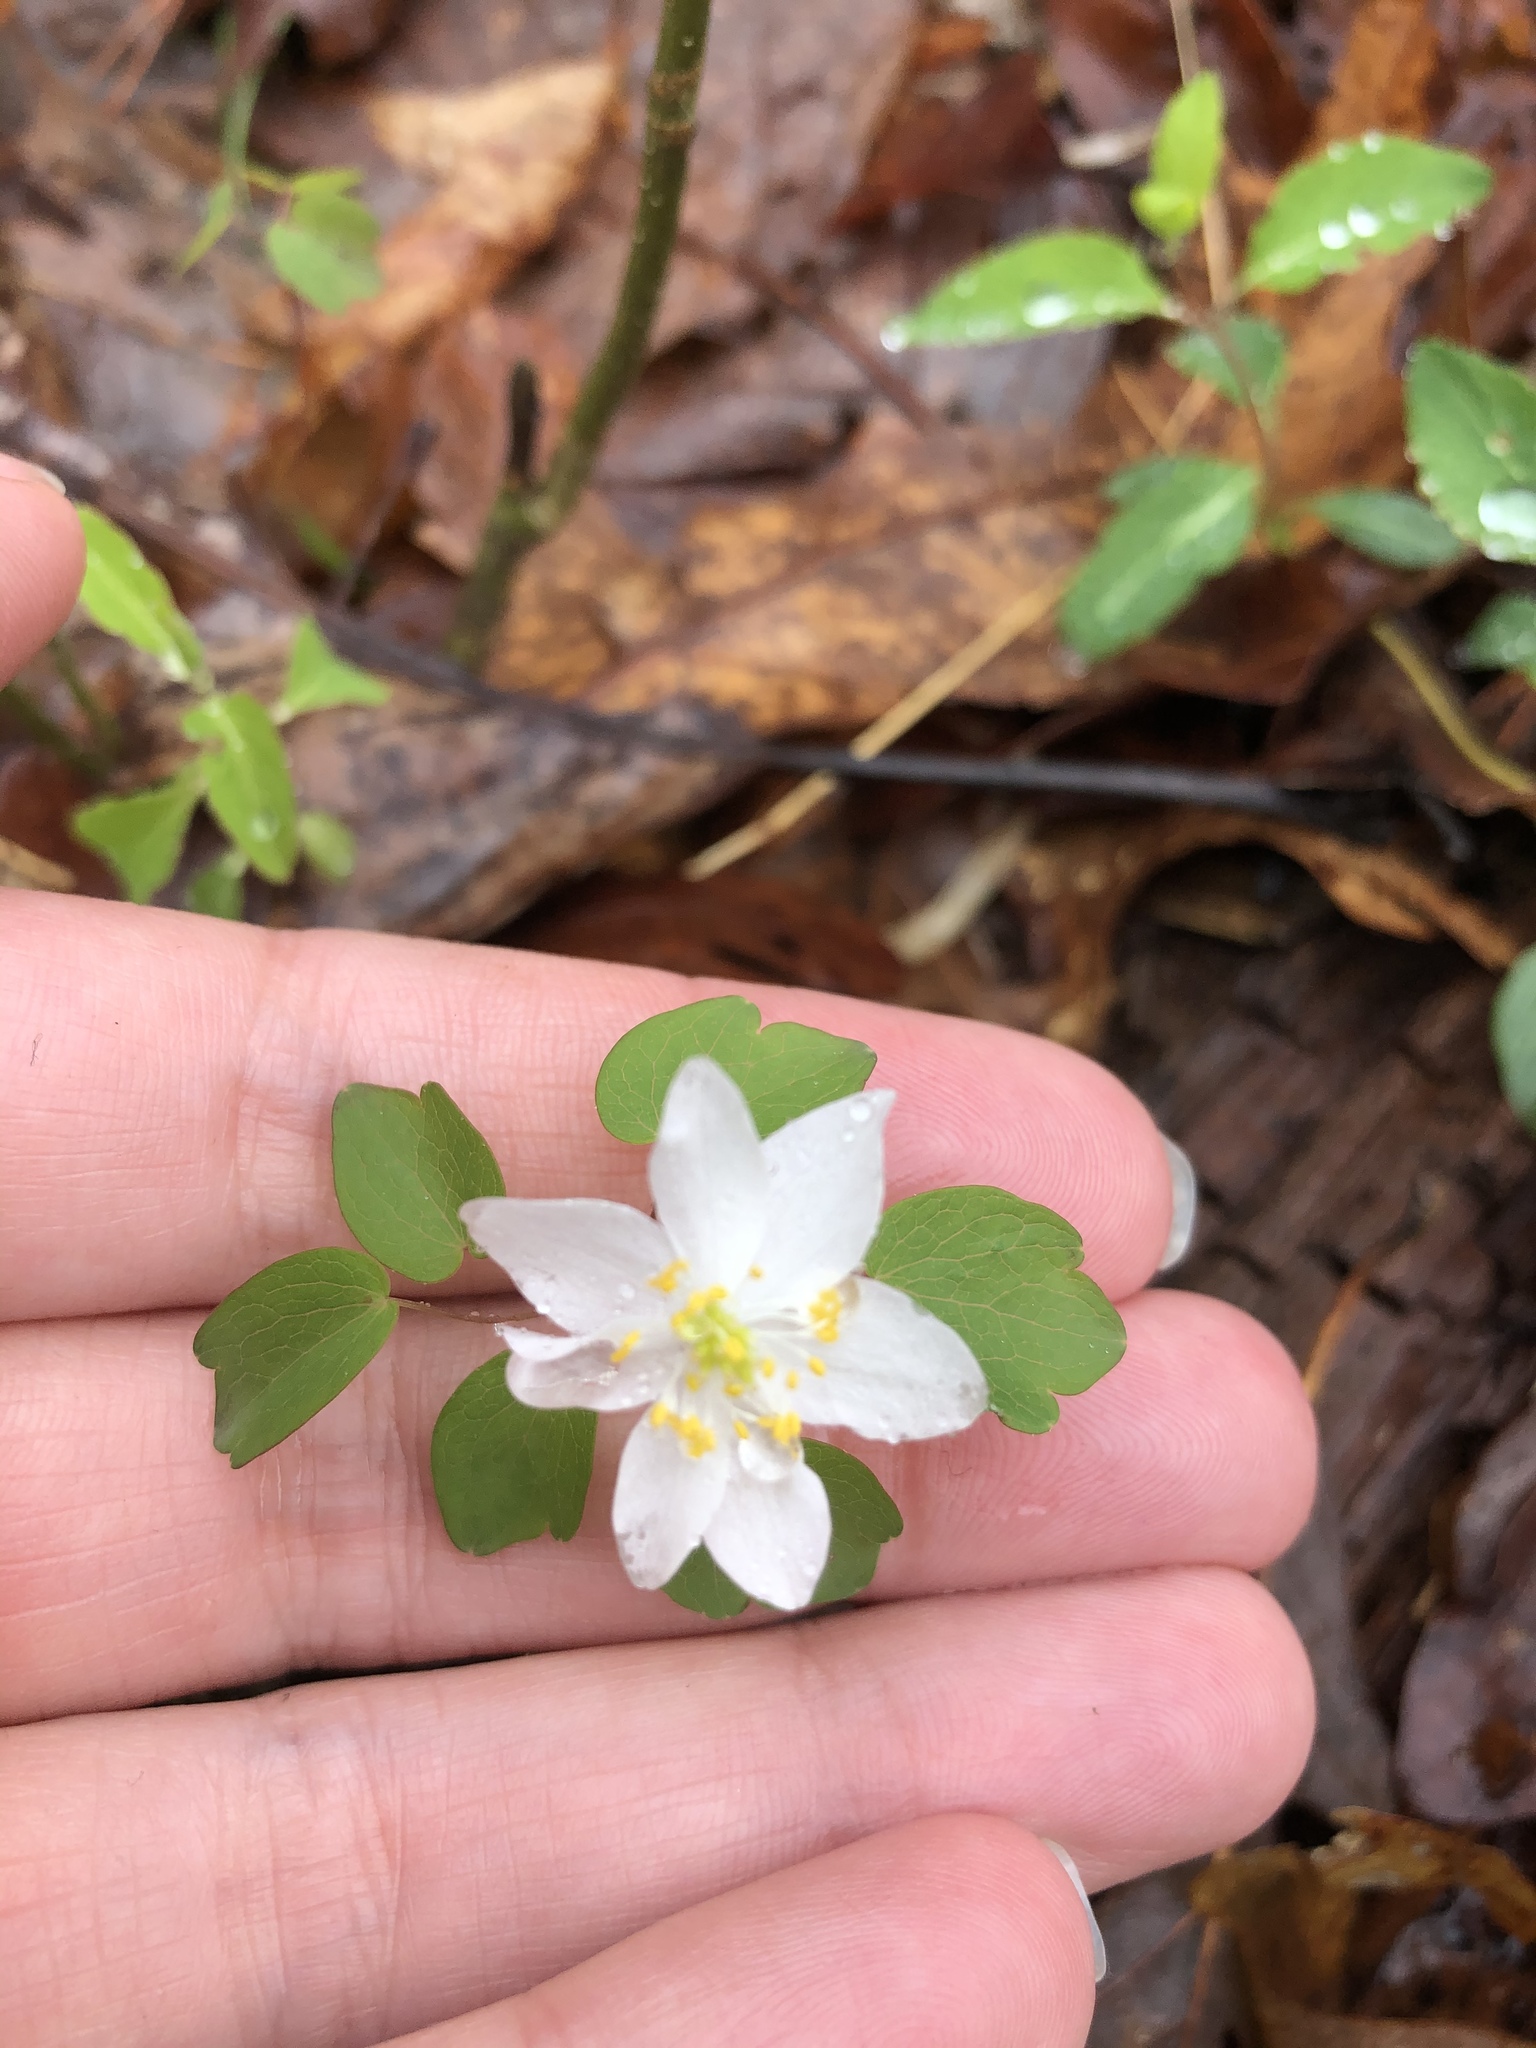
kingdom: Plantae
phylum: Tracheophyta
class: Magnoliopsida
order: Ranunculales
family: Ranunculaceae
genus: Thalictrum
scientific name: Thalictrum thalictroides
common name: Rue-anemone
